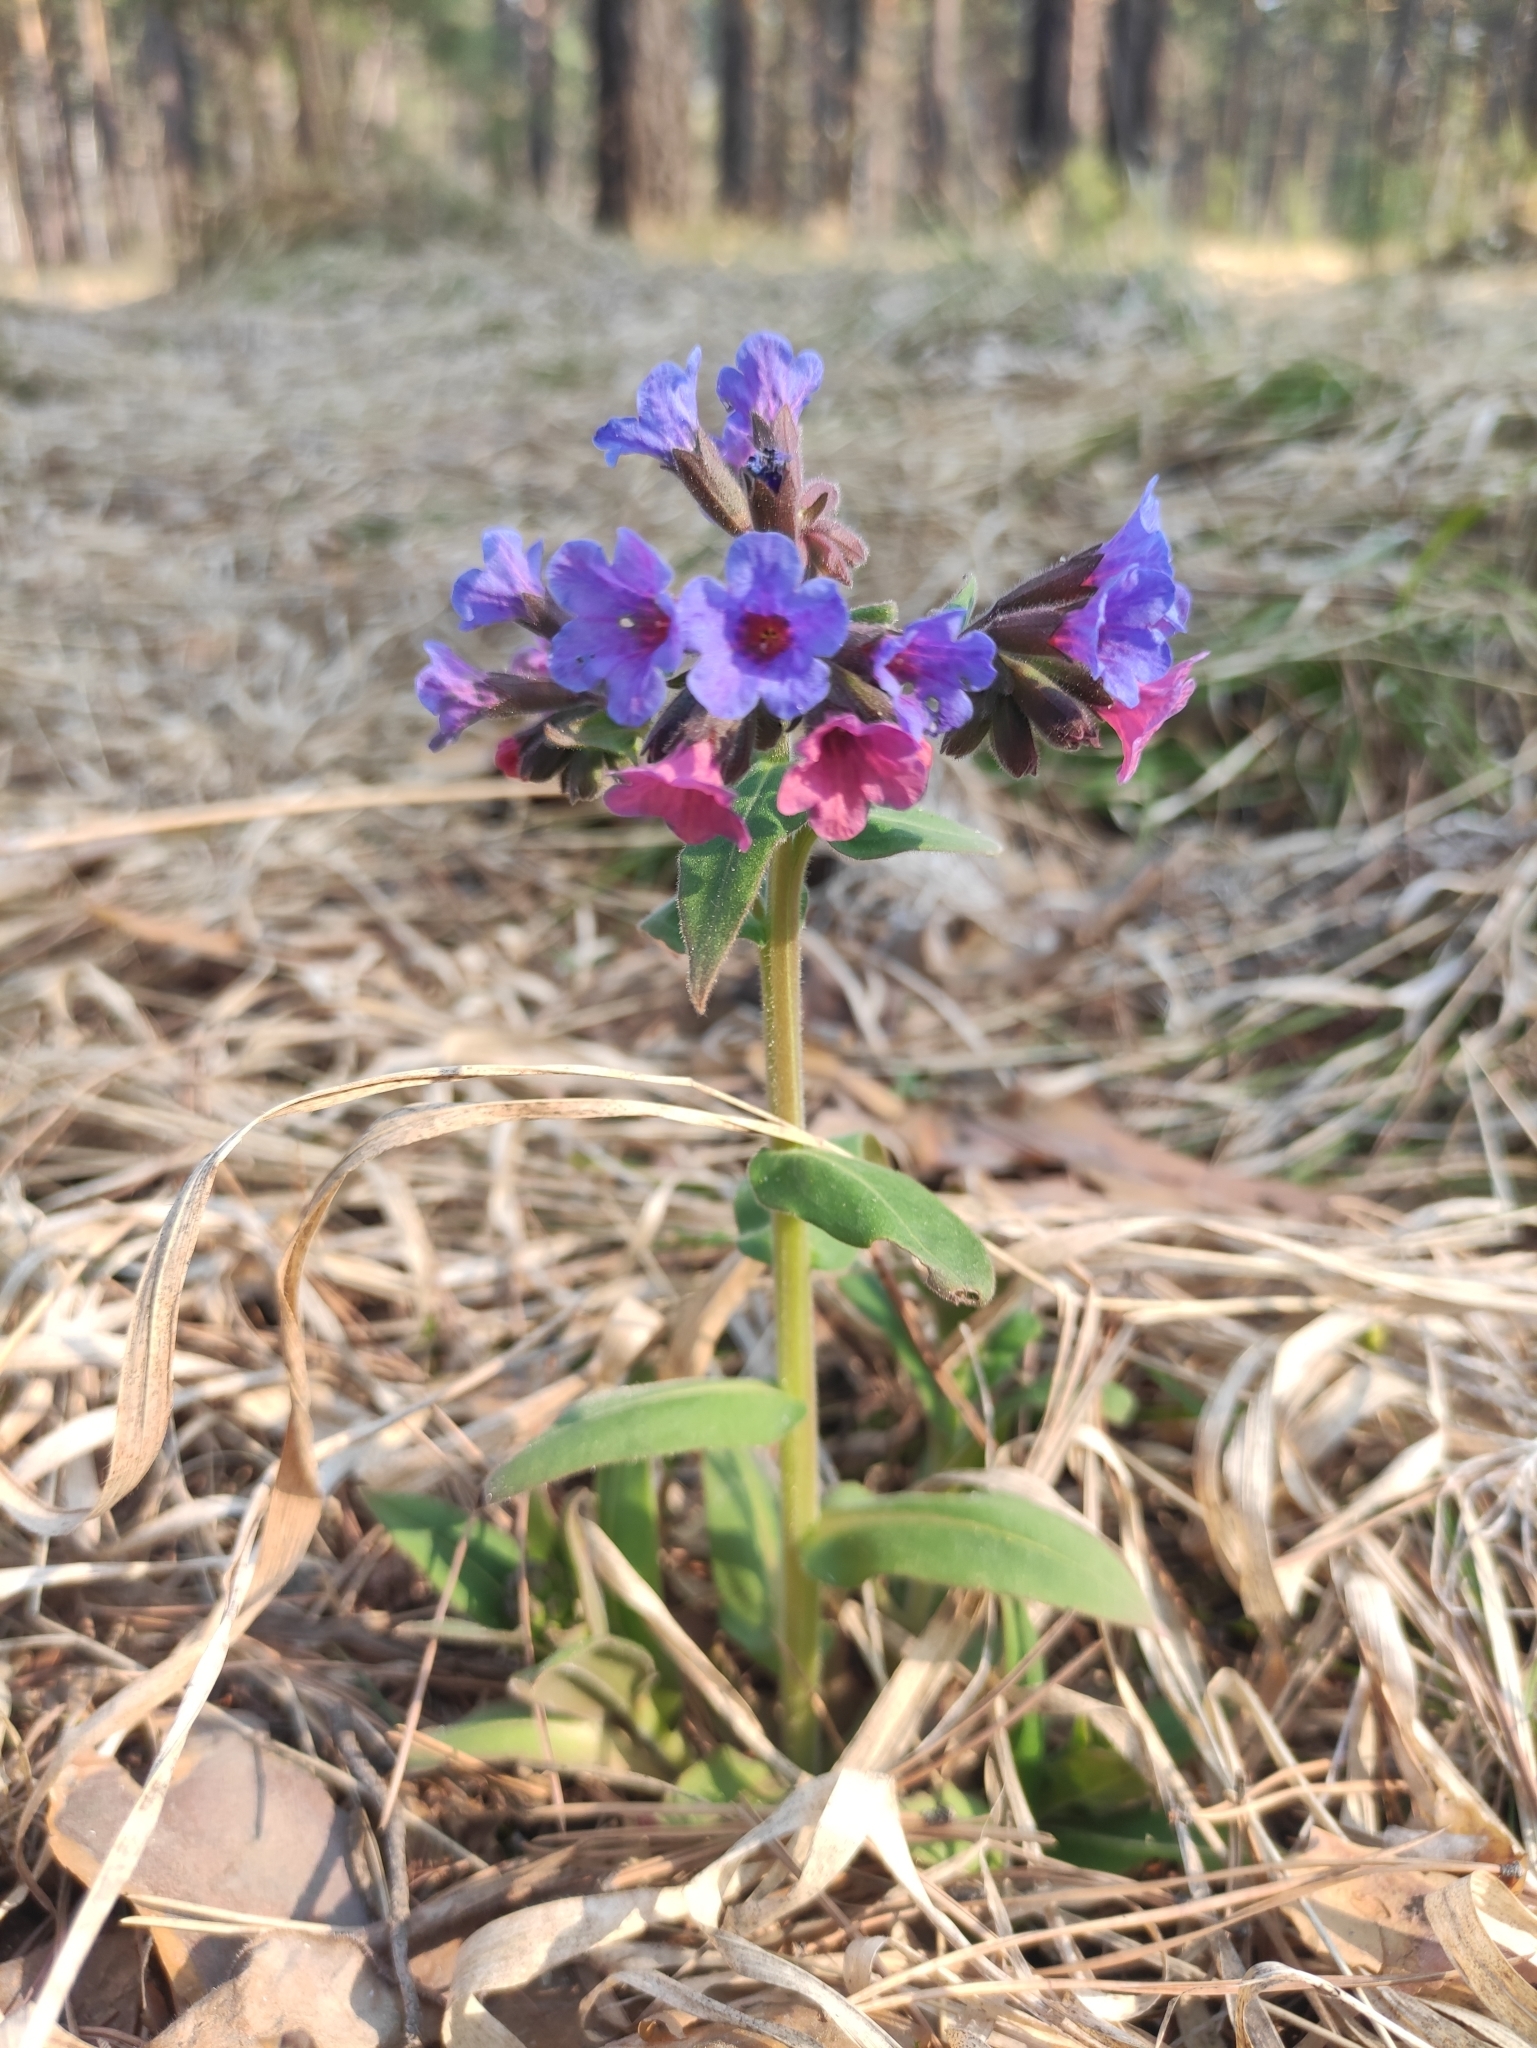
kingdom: Plantae
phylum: Tracheophyta
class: Magnoliopsida
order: Boraginales
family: Boraginaceae
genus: Pulmonaria
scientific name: Pulmonaria mollis
